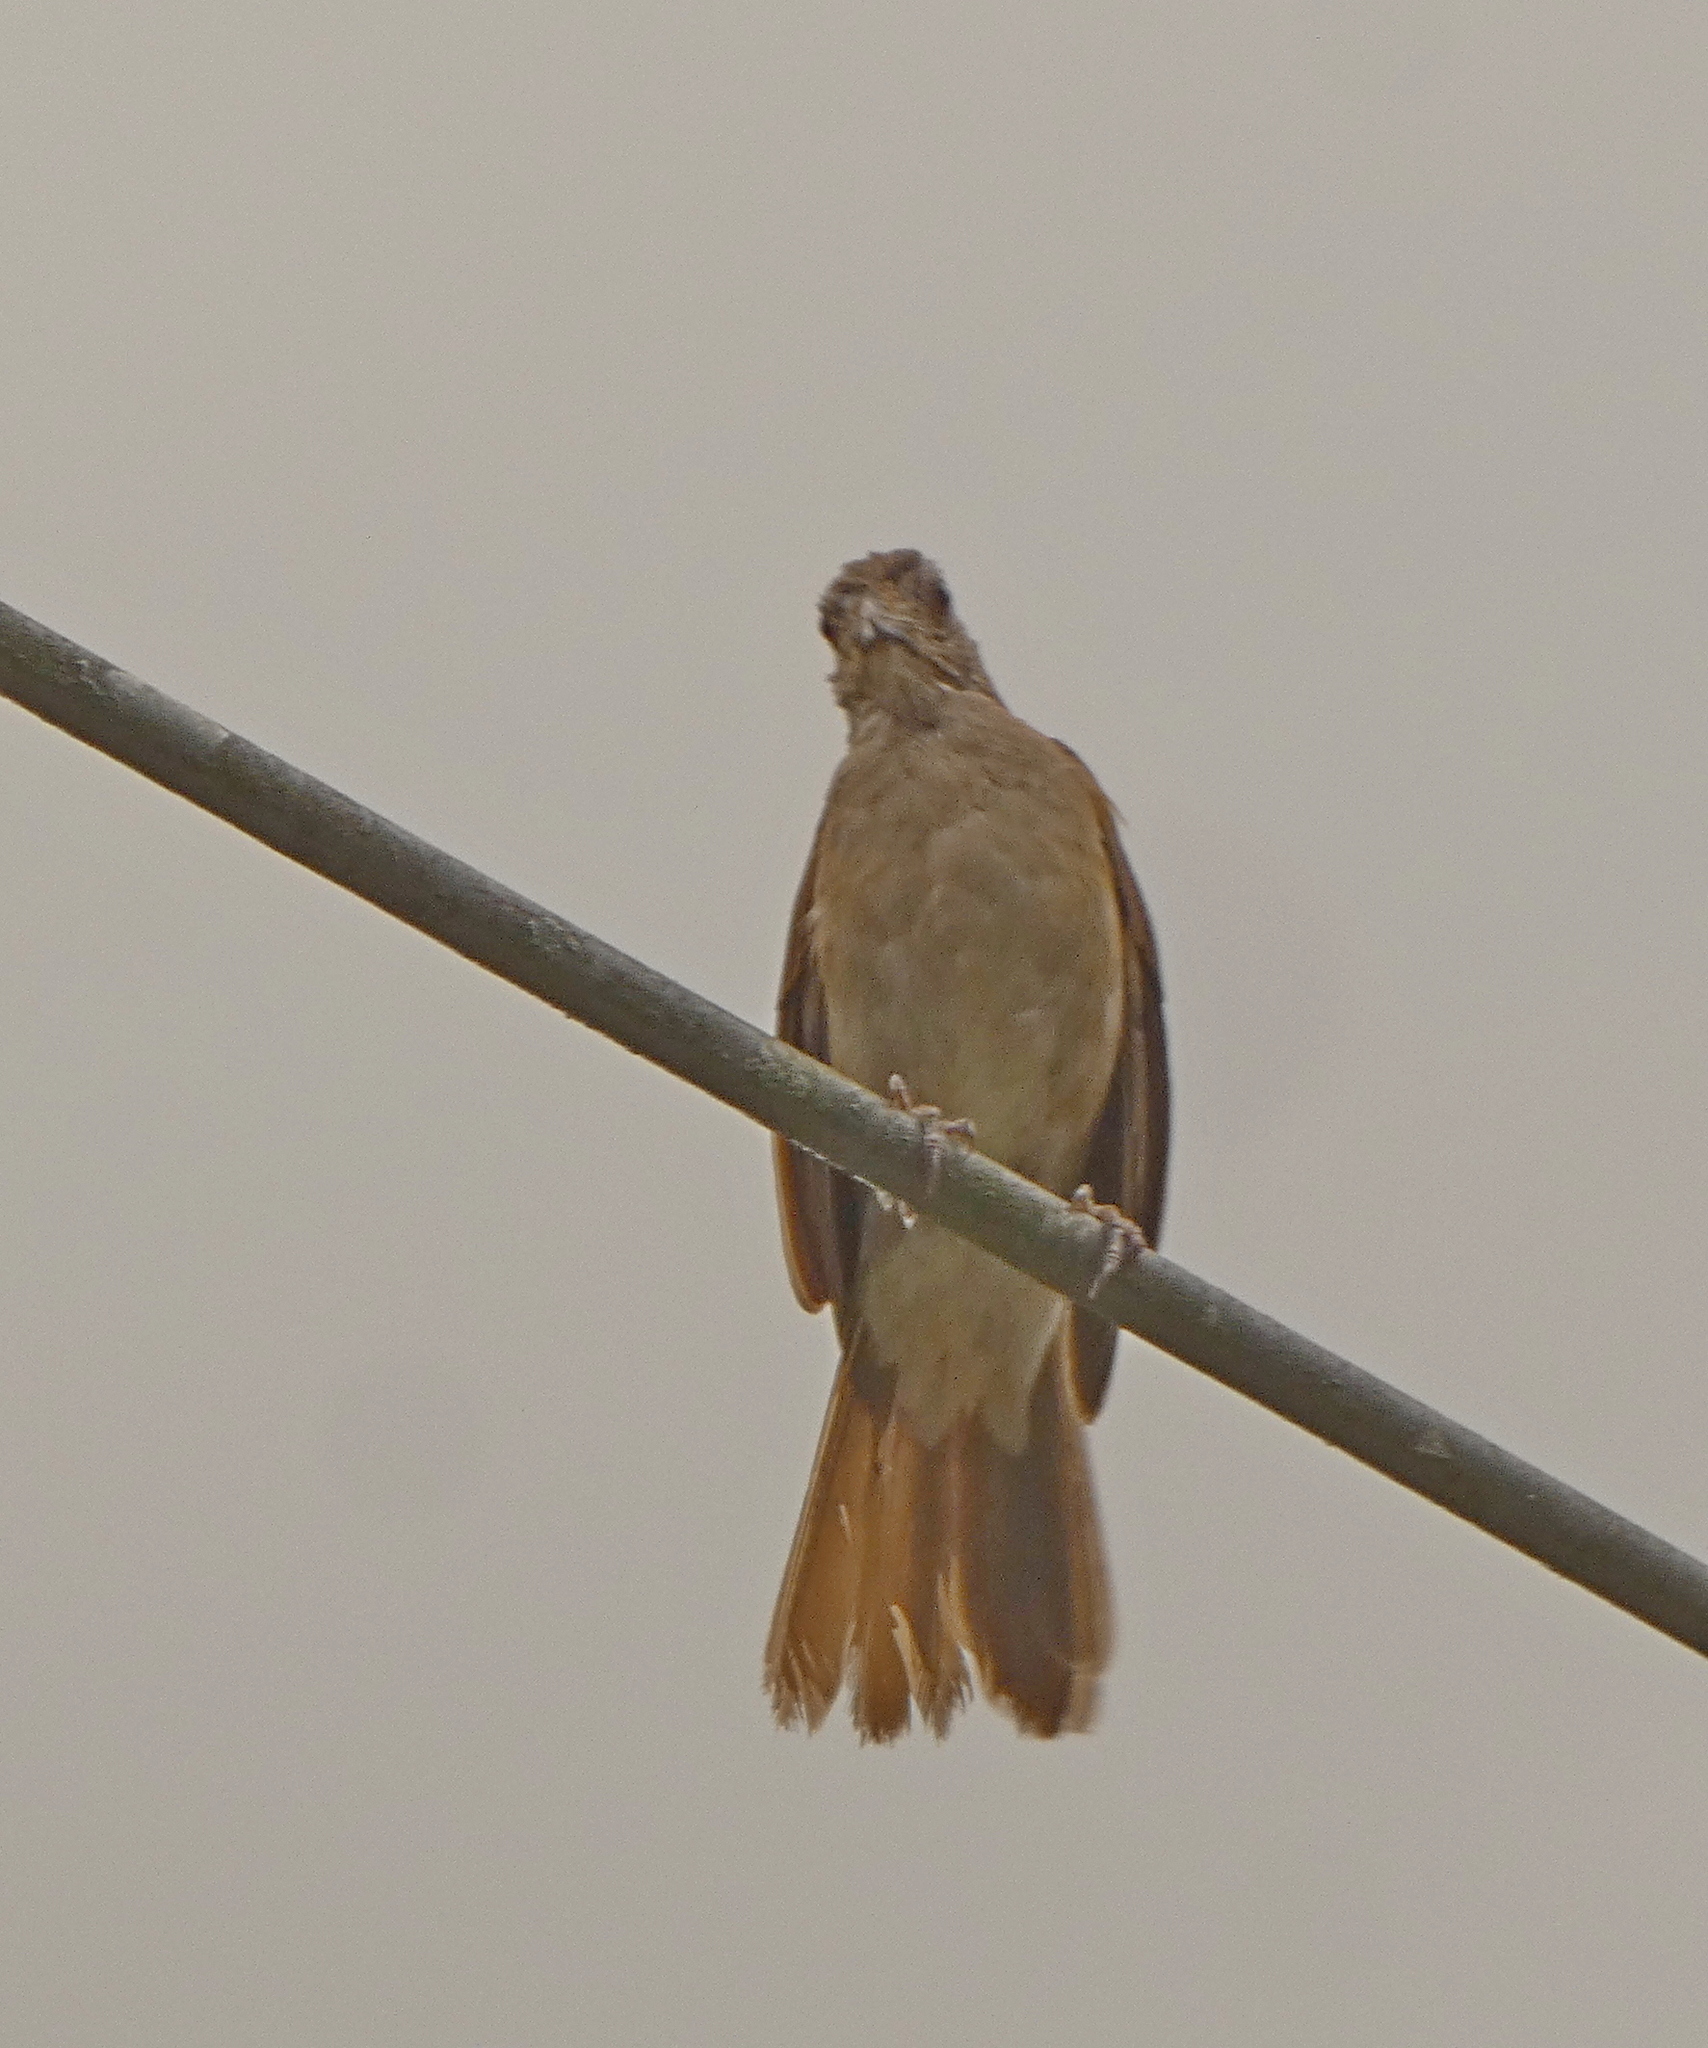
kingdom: Animalia
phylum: Chordata
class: Aves
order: Passeriformes
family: Turdidae
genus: Turdus
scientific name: Turdus leucomelas
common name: Pale-breasted thrush
